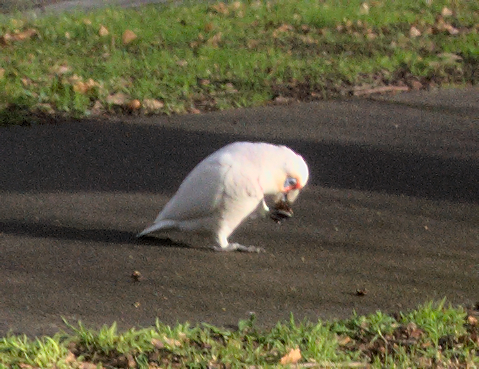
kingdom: Animalia
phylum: Chordata
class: Aves
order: Psittaciformes
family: Psittacidae
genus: Cacatua
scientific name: Cacatua tenuirostris
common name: Long-billed corella
